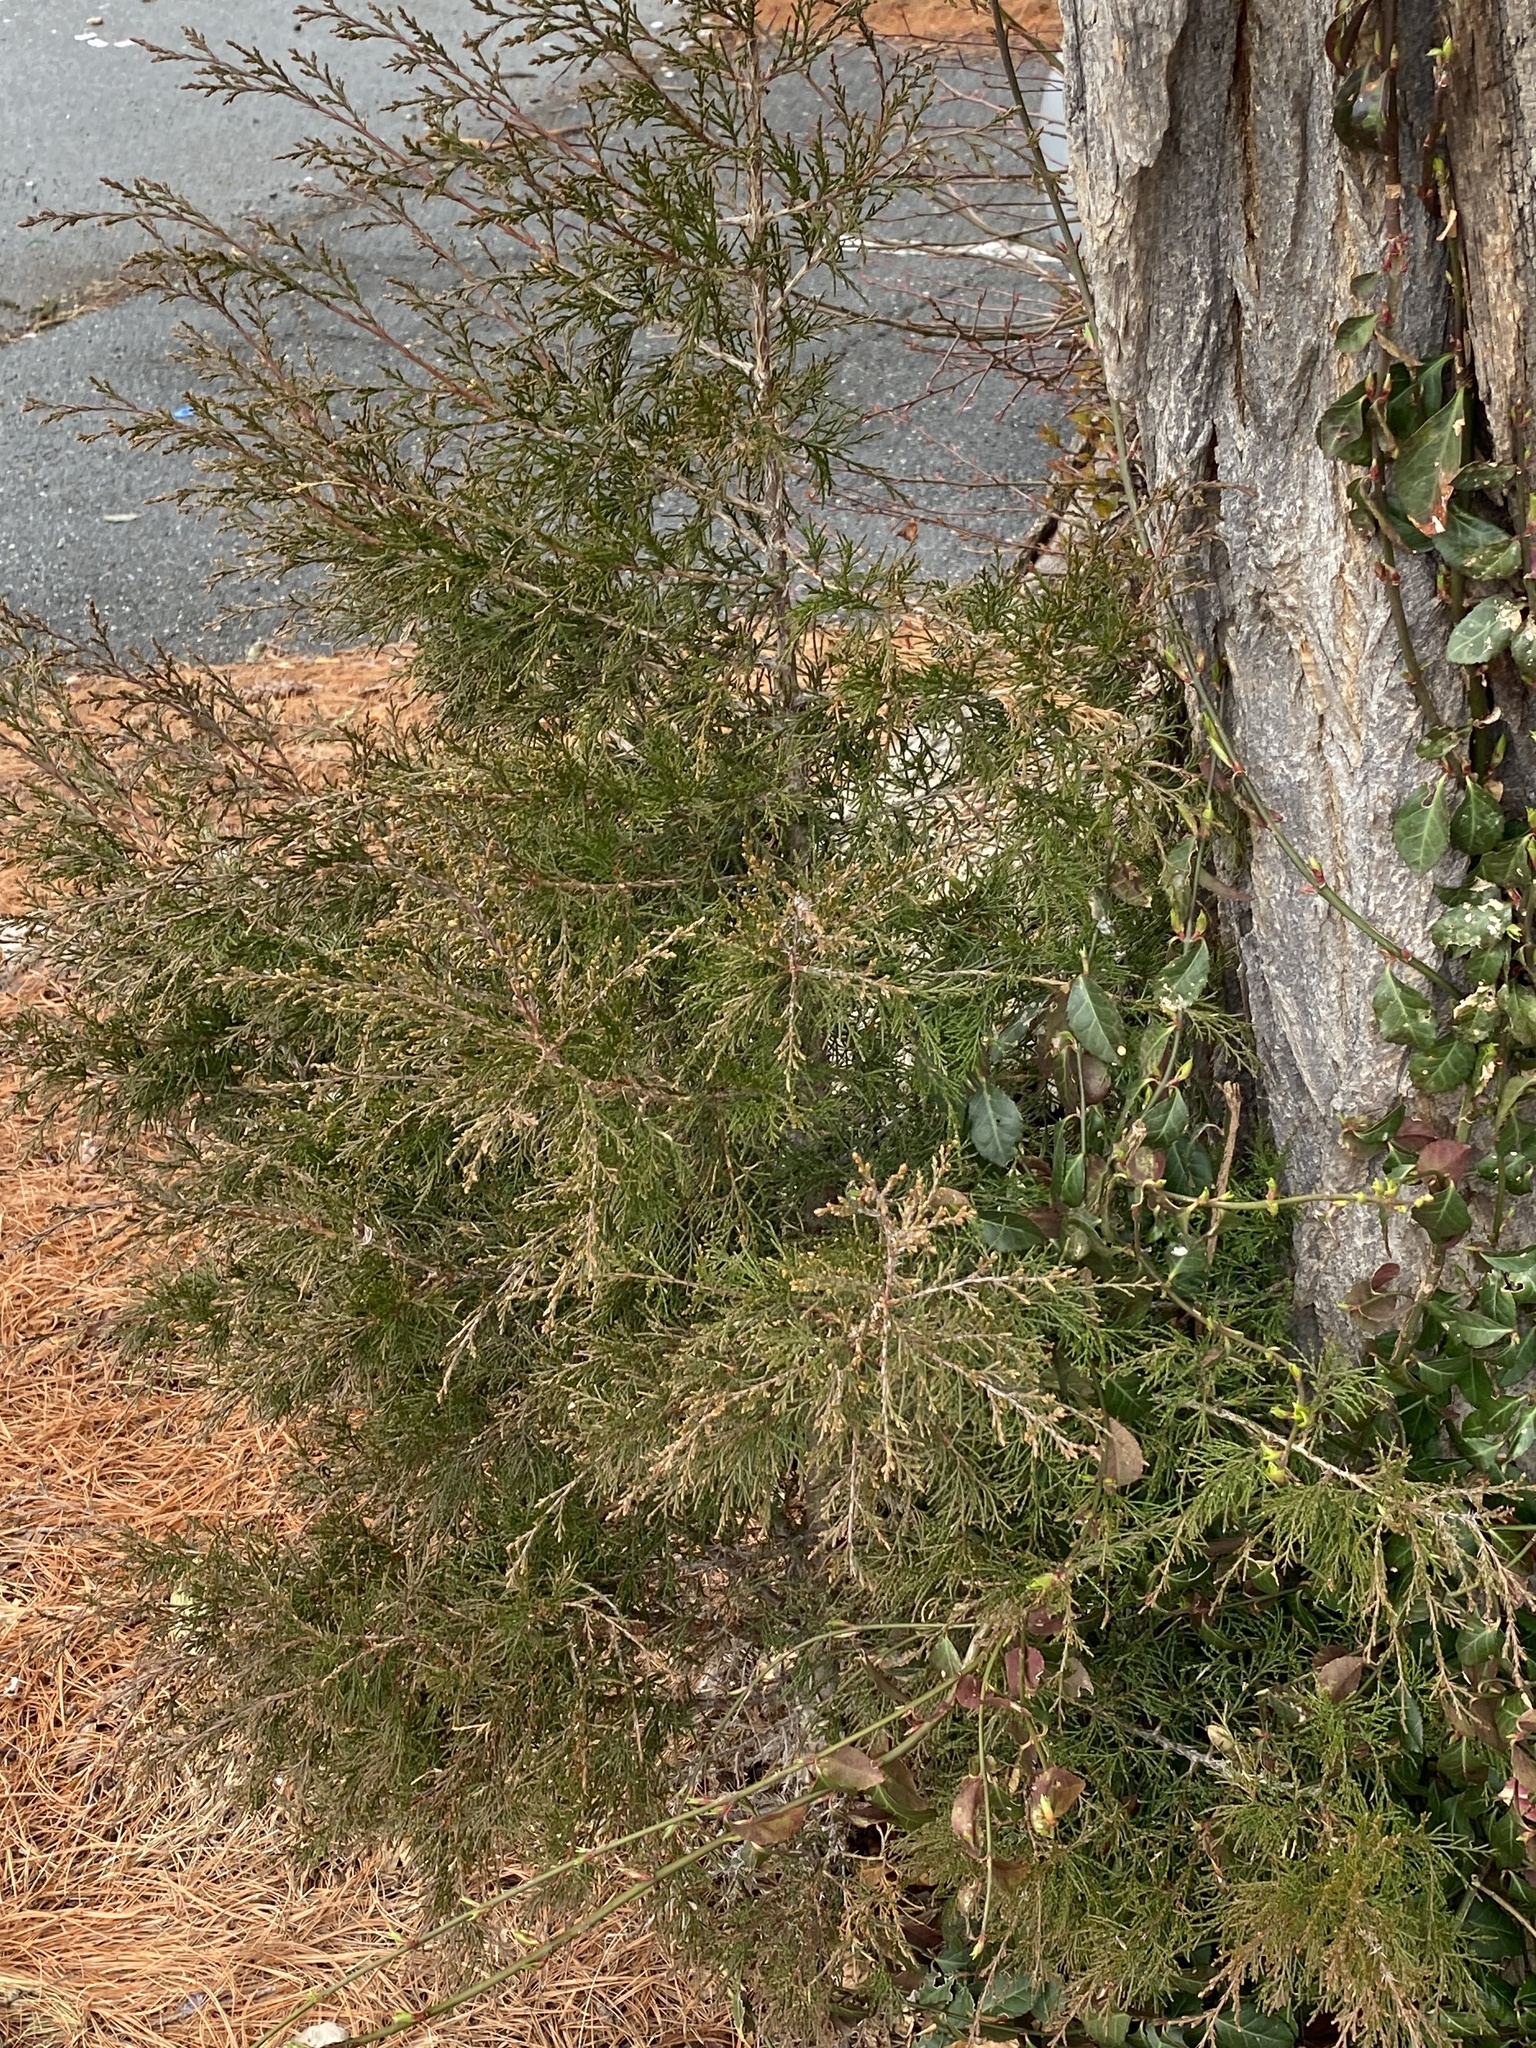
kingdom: Plantae
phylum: Tracheophyta
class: Pinopsida
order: Pinales
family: Cupressaceae
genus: Juniperus
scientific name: Juniperus virginiana
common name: Red juniper
